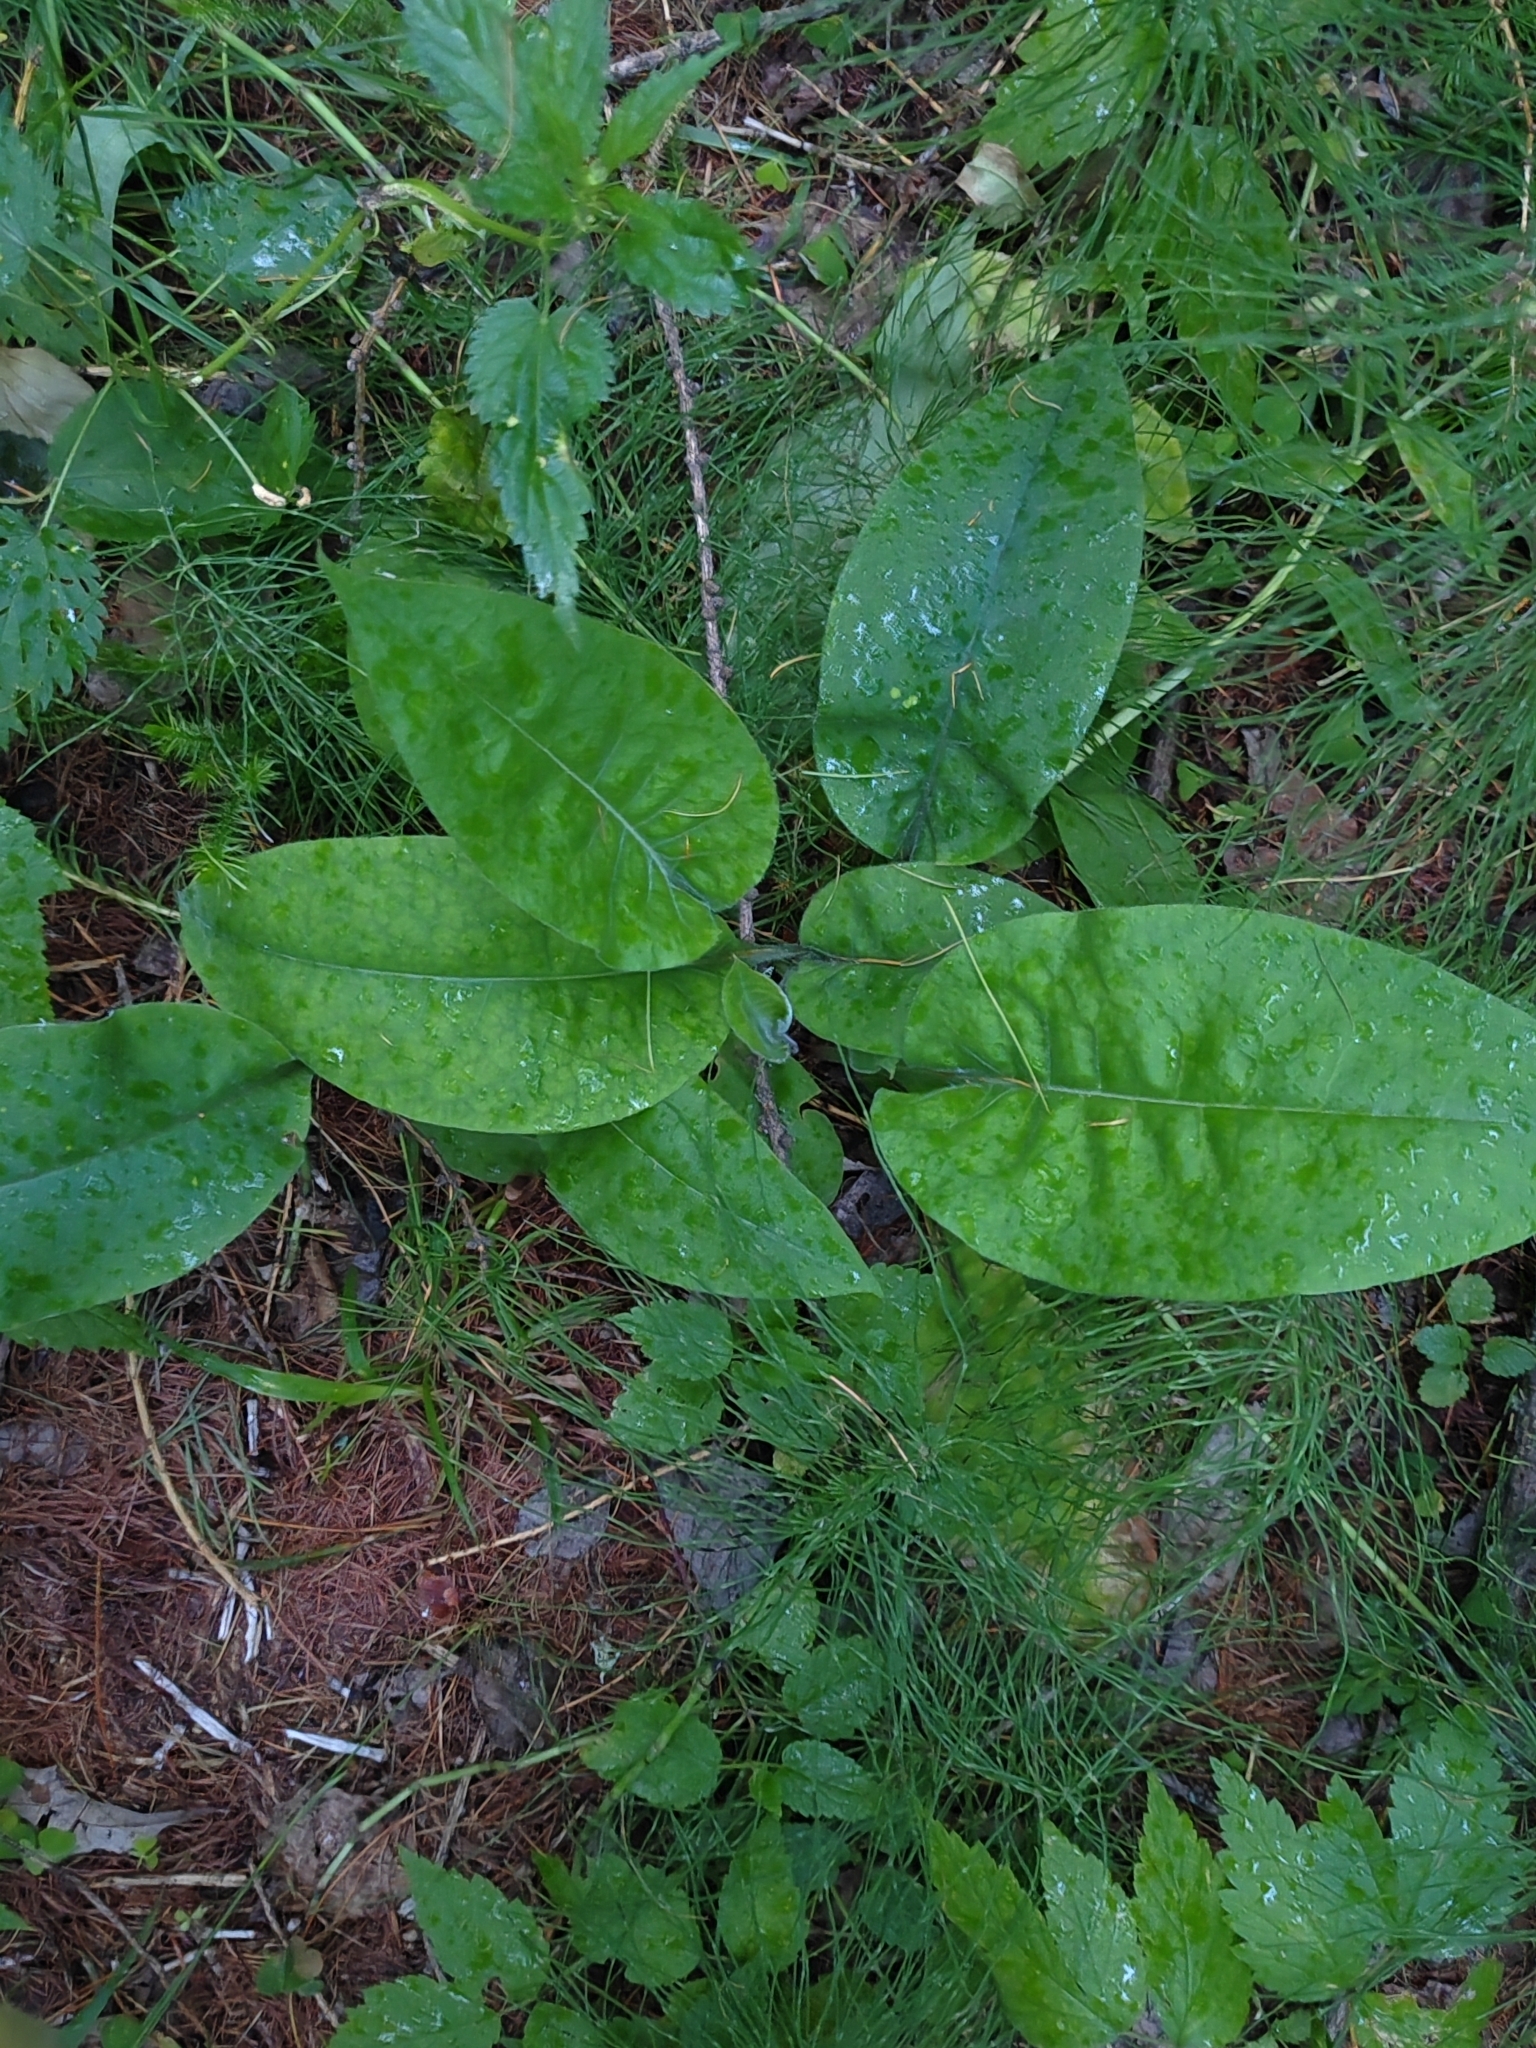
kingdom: Plantae
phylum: Tracheophyta
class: Magnoliopsida
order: Boraginales
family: Boraginaceae
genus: Pulmonaria
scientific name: Pulmonaria mollis
